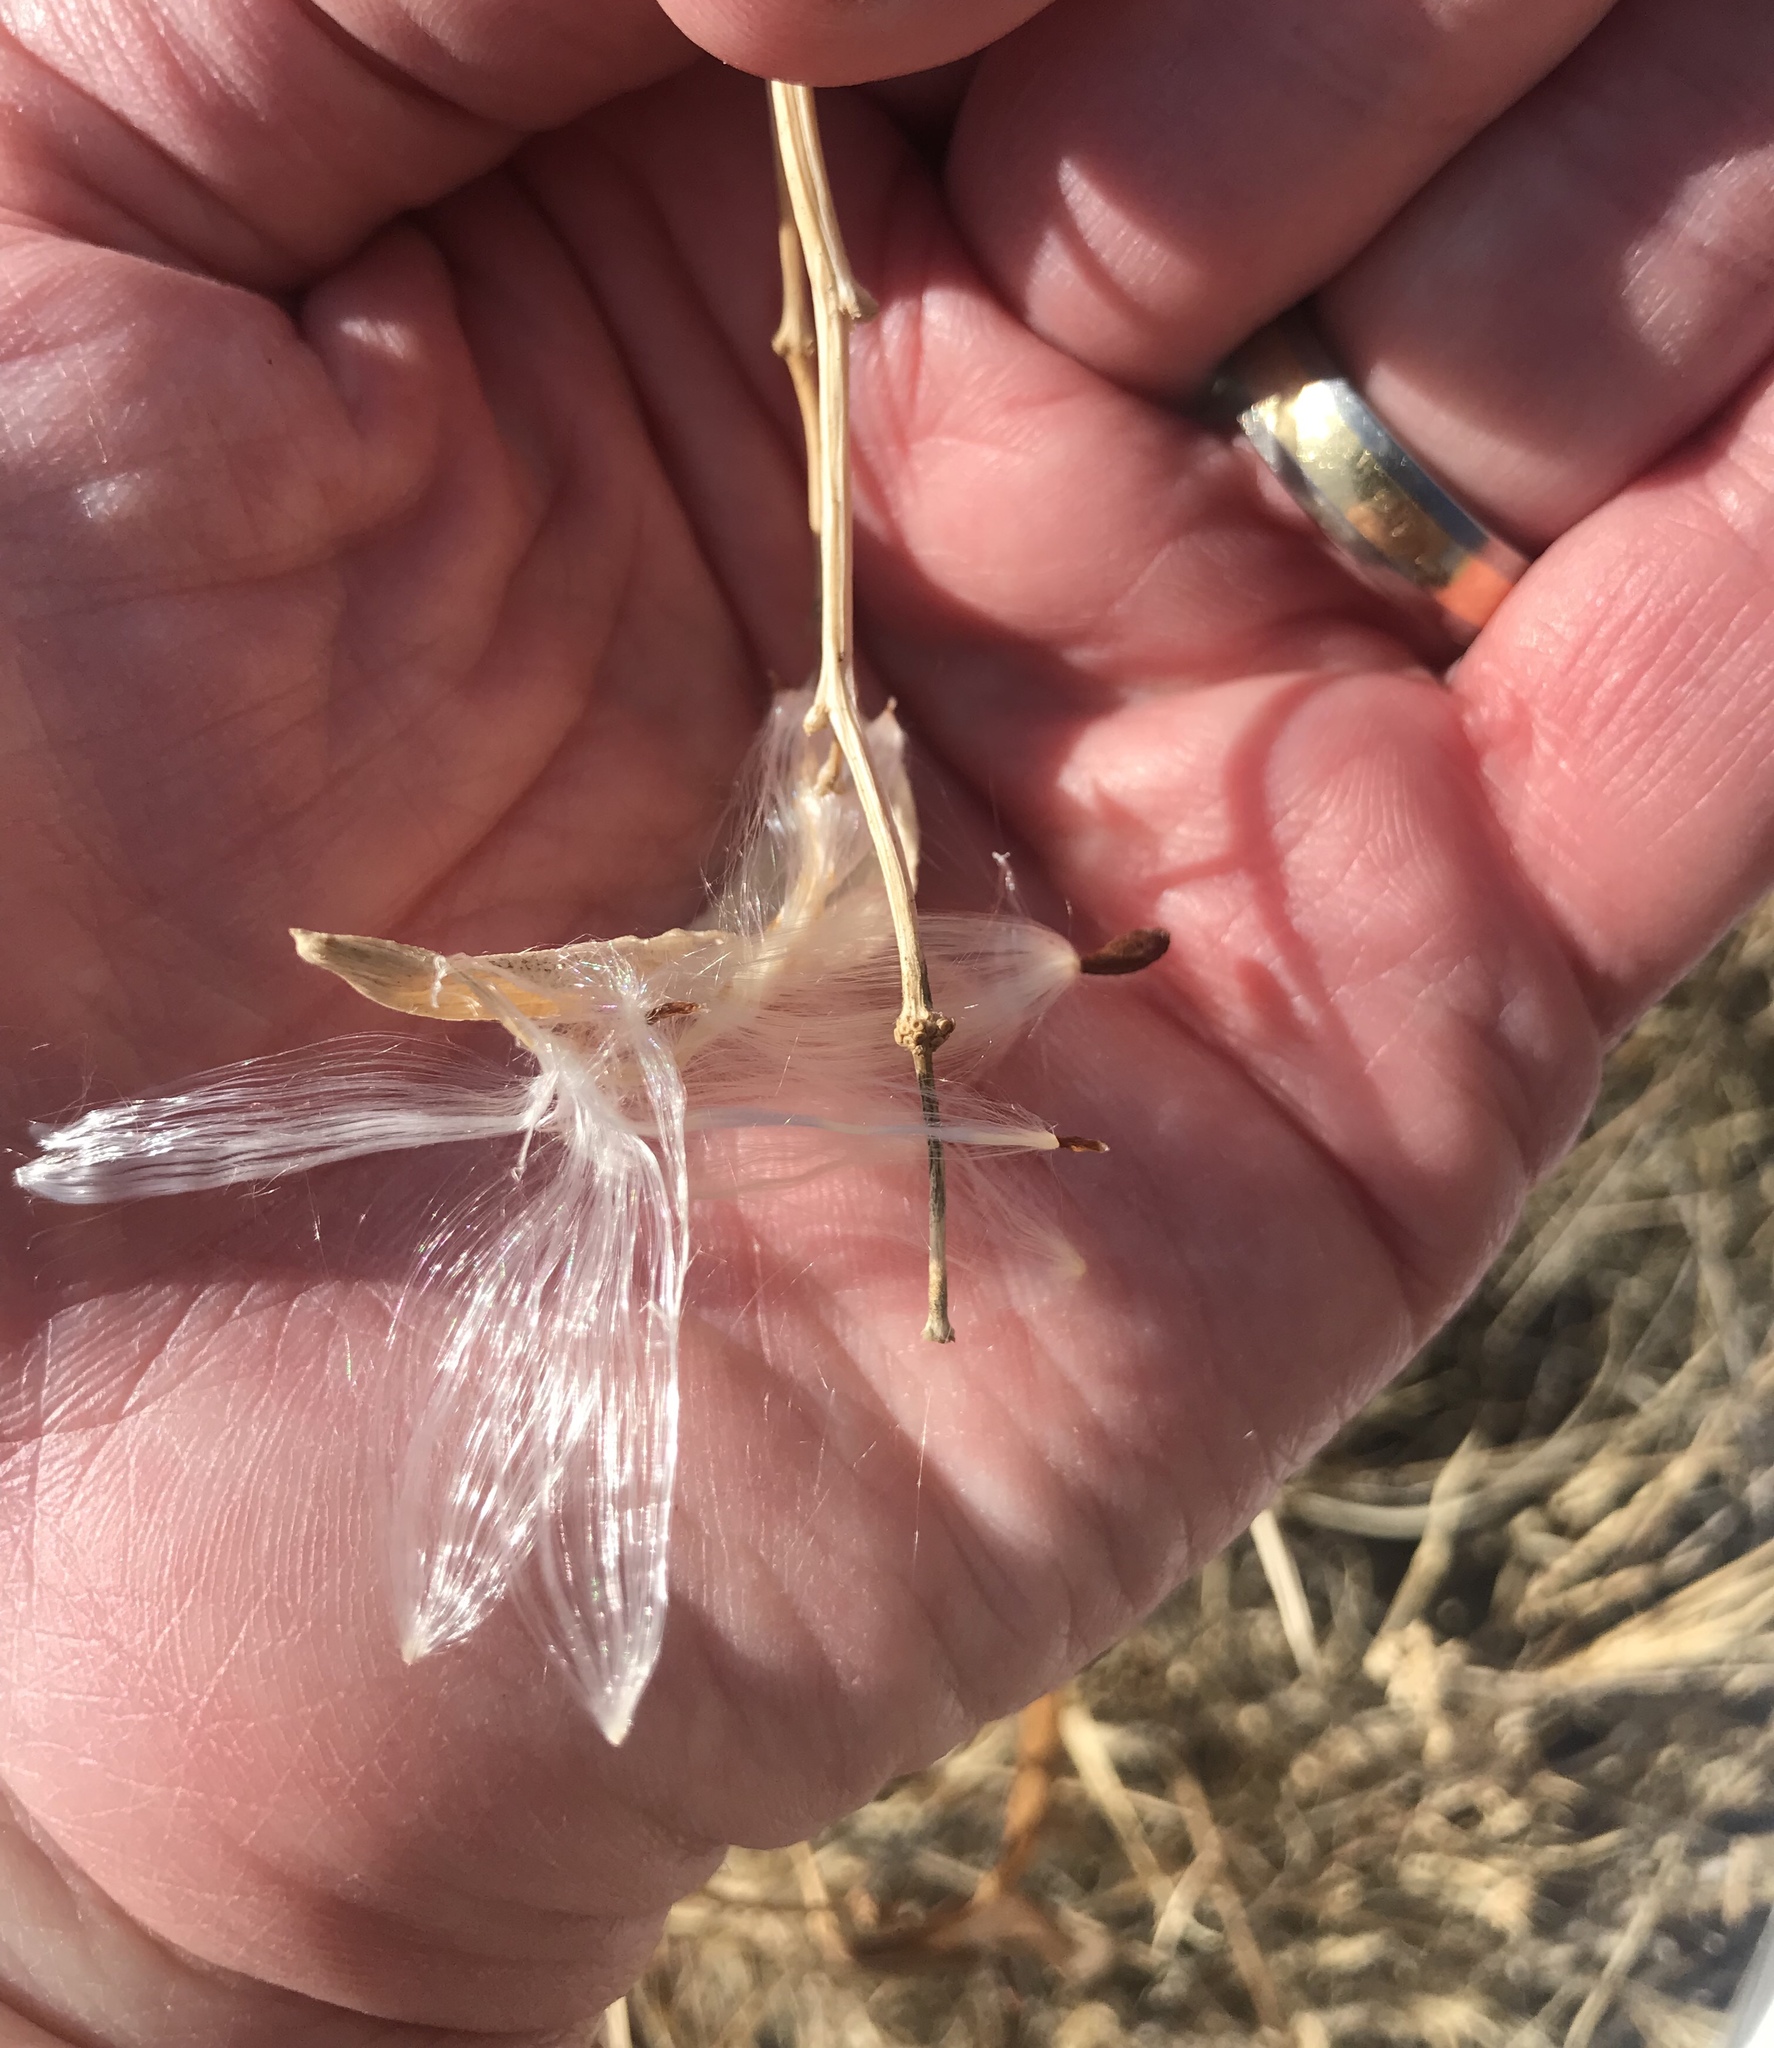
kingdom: Plantae
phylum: Tracheophyta
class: Magnoliopsida
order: Gentianales
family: Apocynaceae
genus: Asclepias
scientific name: Asclepias fascicularis
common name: Mexican milkweed
